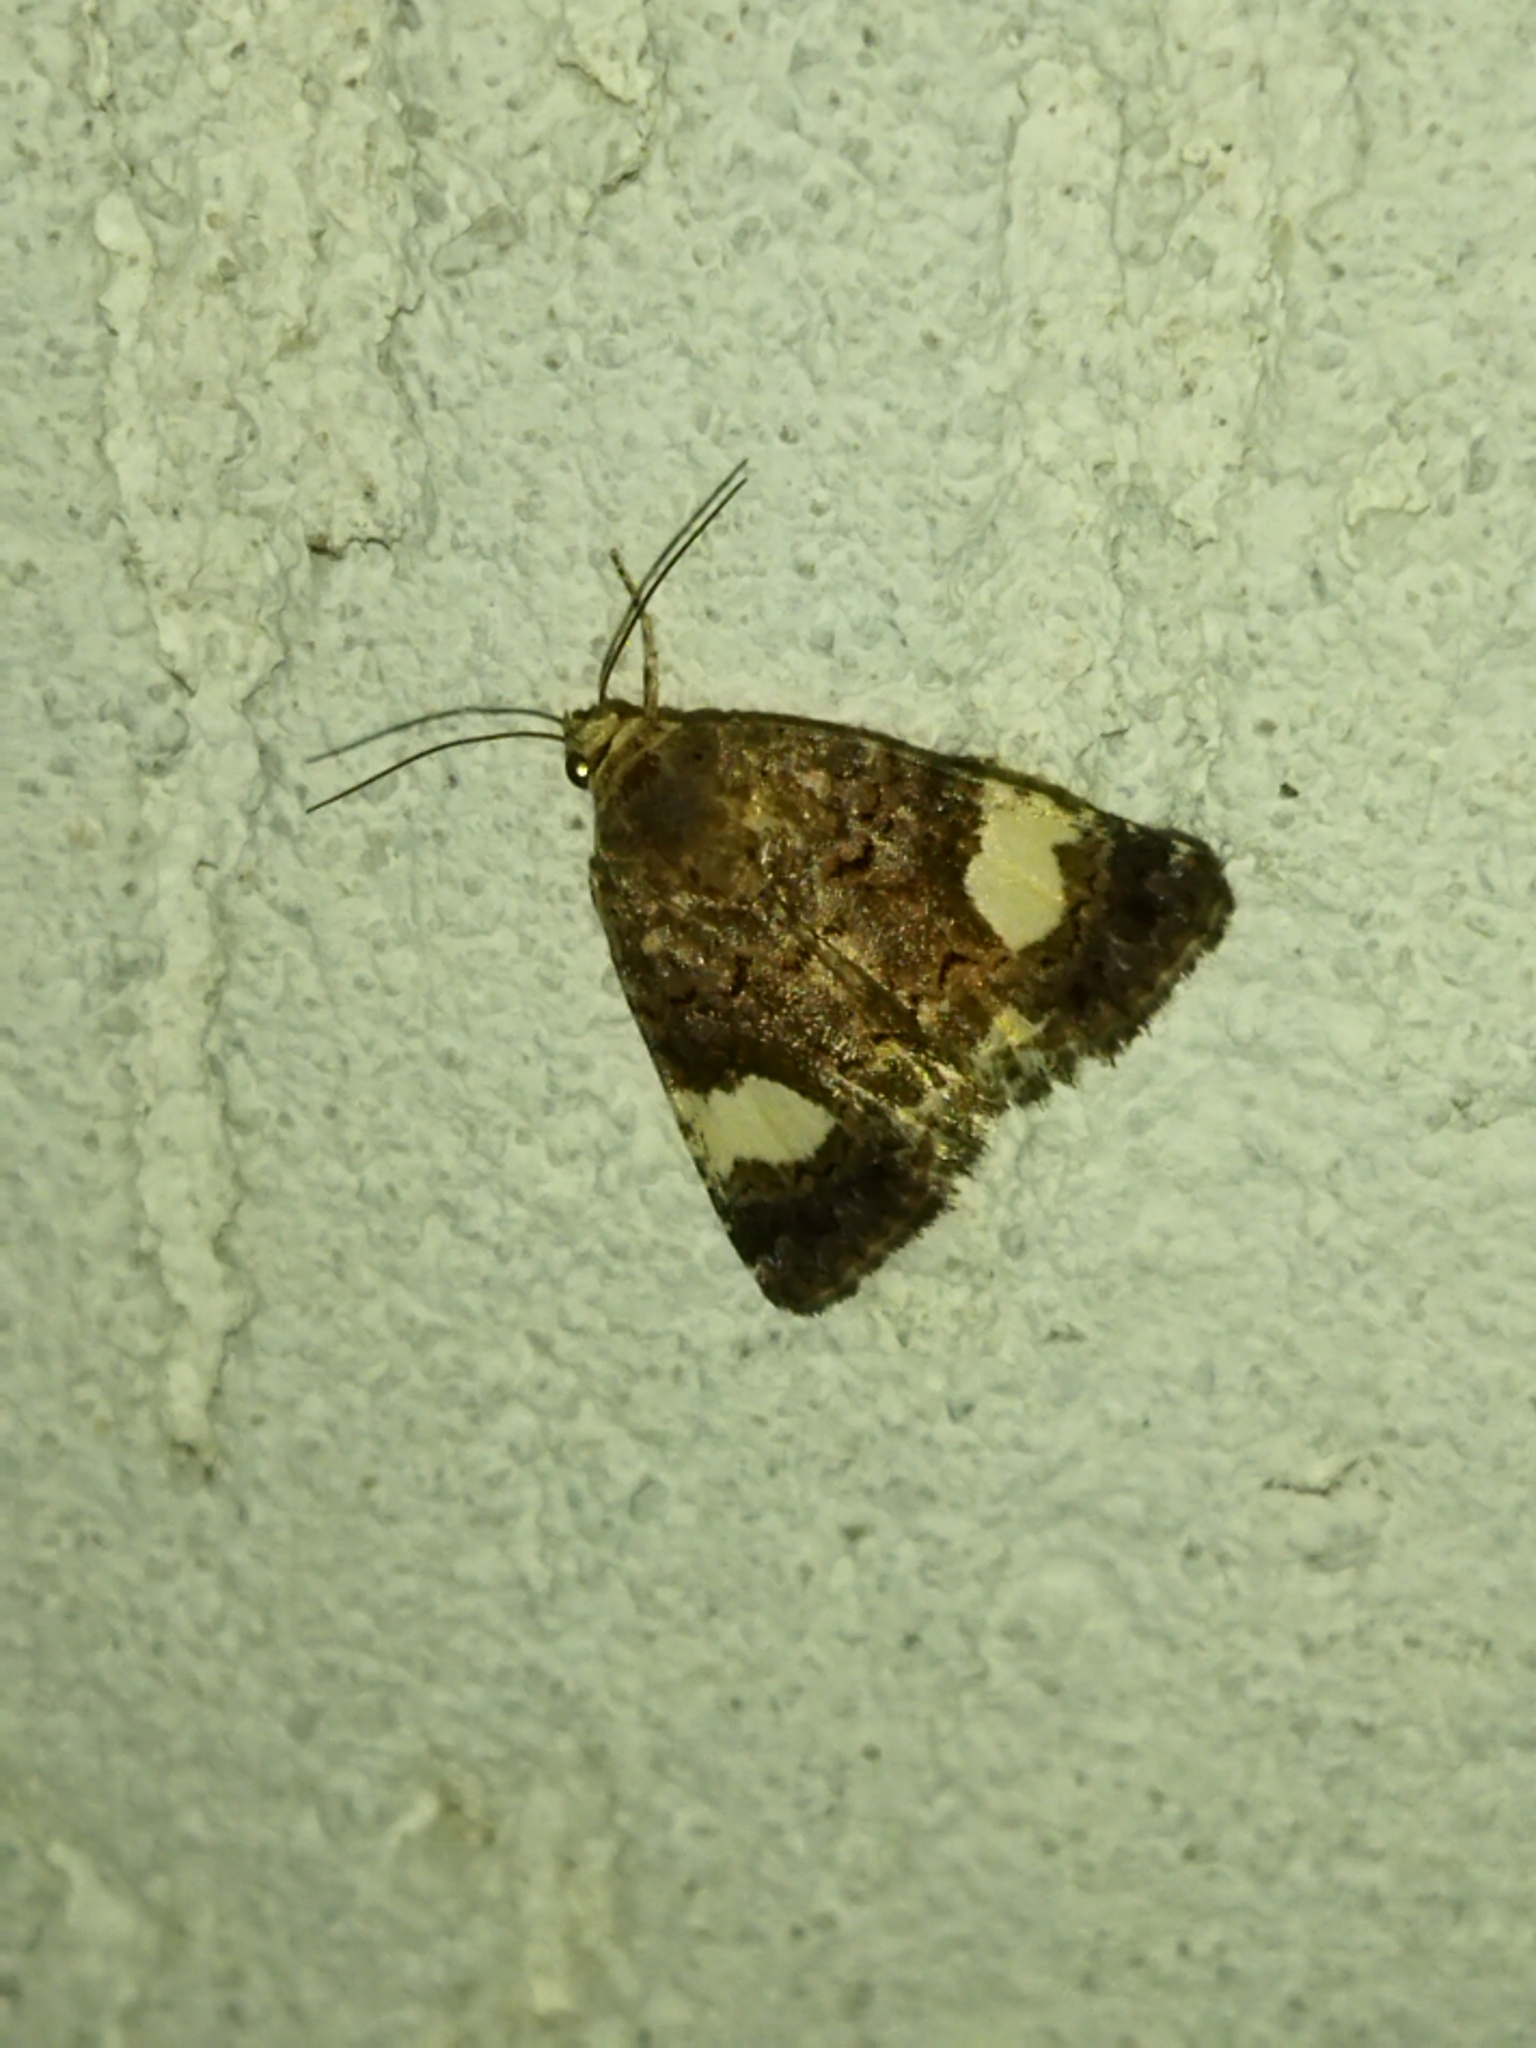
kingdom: Animalia
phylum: Arthropoda
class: Insecta
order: Lepidoptera
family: Erebidae
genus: Tyta
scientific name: Tyta luctuosa
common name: Four-spotted
